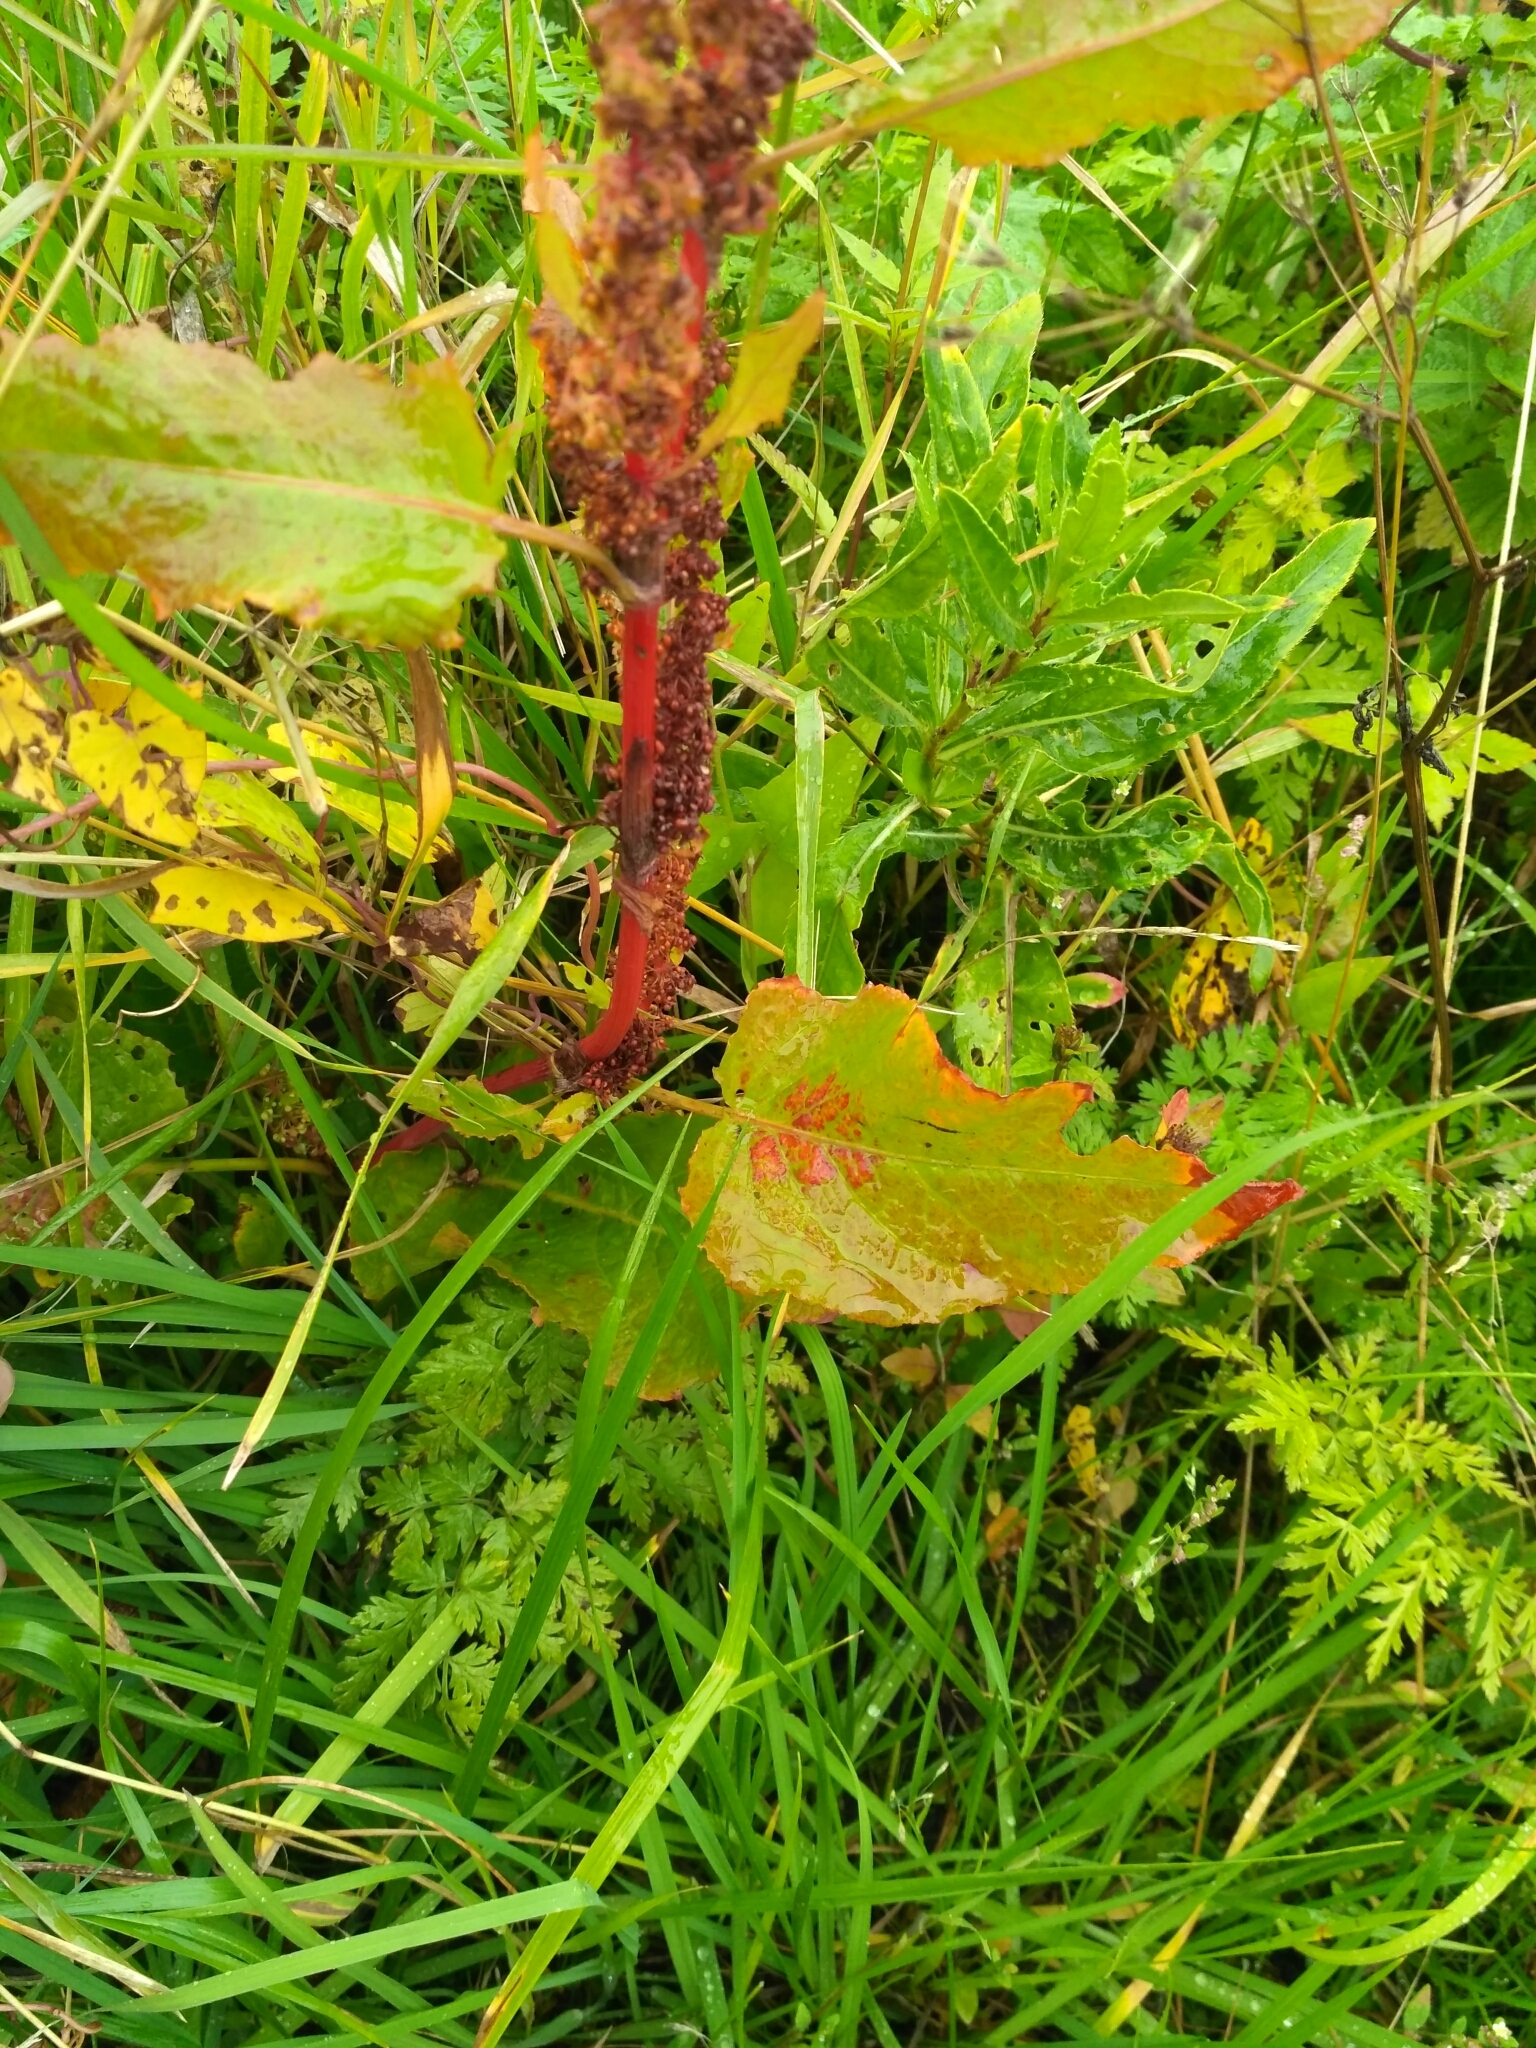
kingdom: Plantae
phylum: Tracheophyta
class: Magnoliopsida
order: Caryophyllales
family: Polygonaceae
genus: Rumex
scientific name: Rumex aquaticus
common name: Scottish dock
